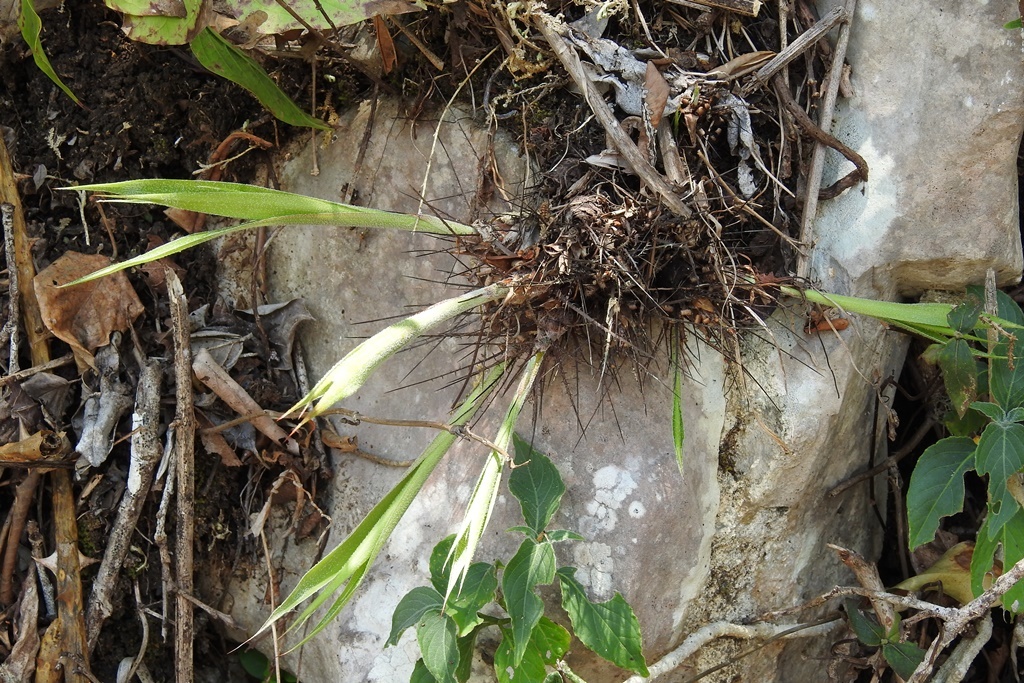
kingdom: Plantae
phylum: Tracheophyta
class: Liliopsida
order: Poales
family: Bromeliaceae
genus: Pitcairnia
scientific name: Pitcairnia heterophylla
